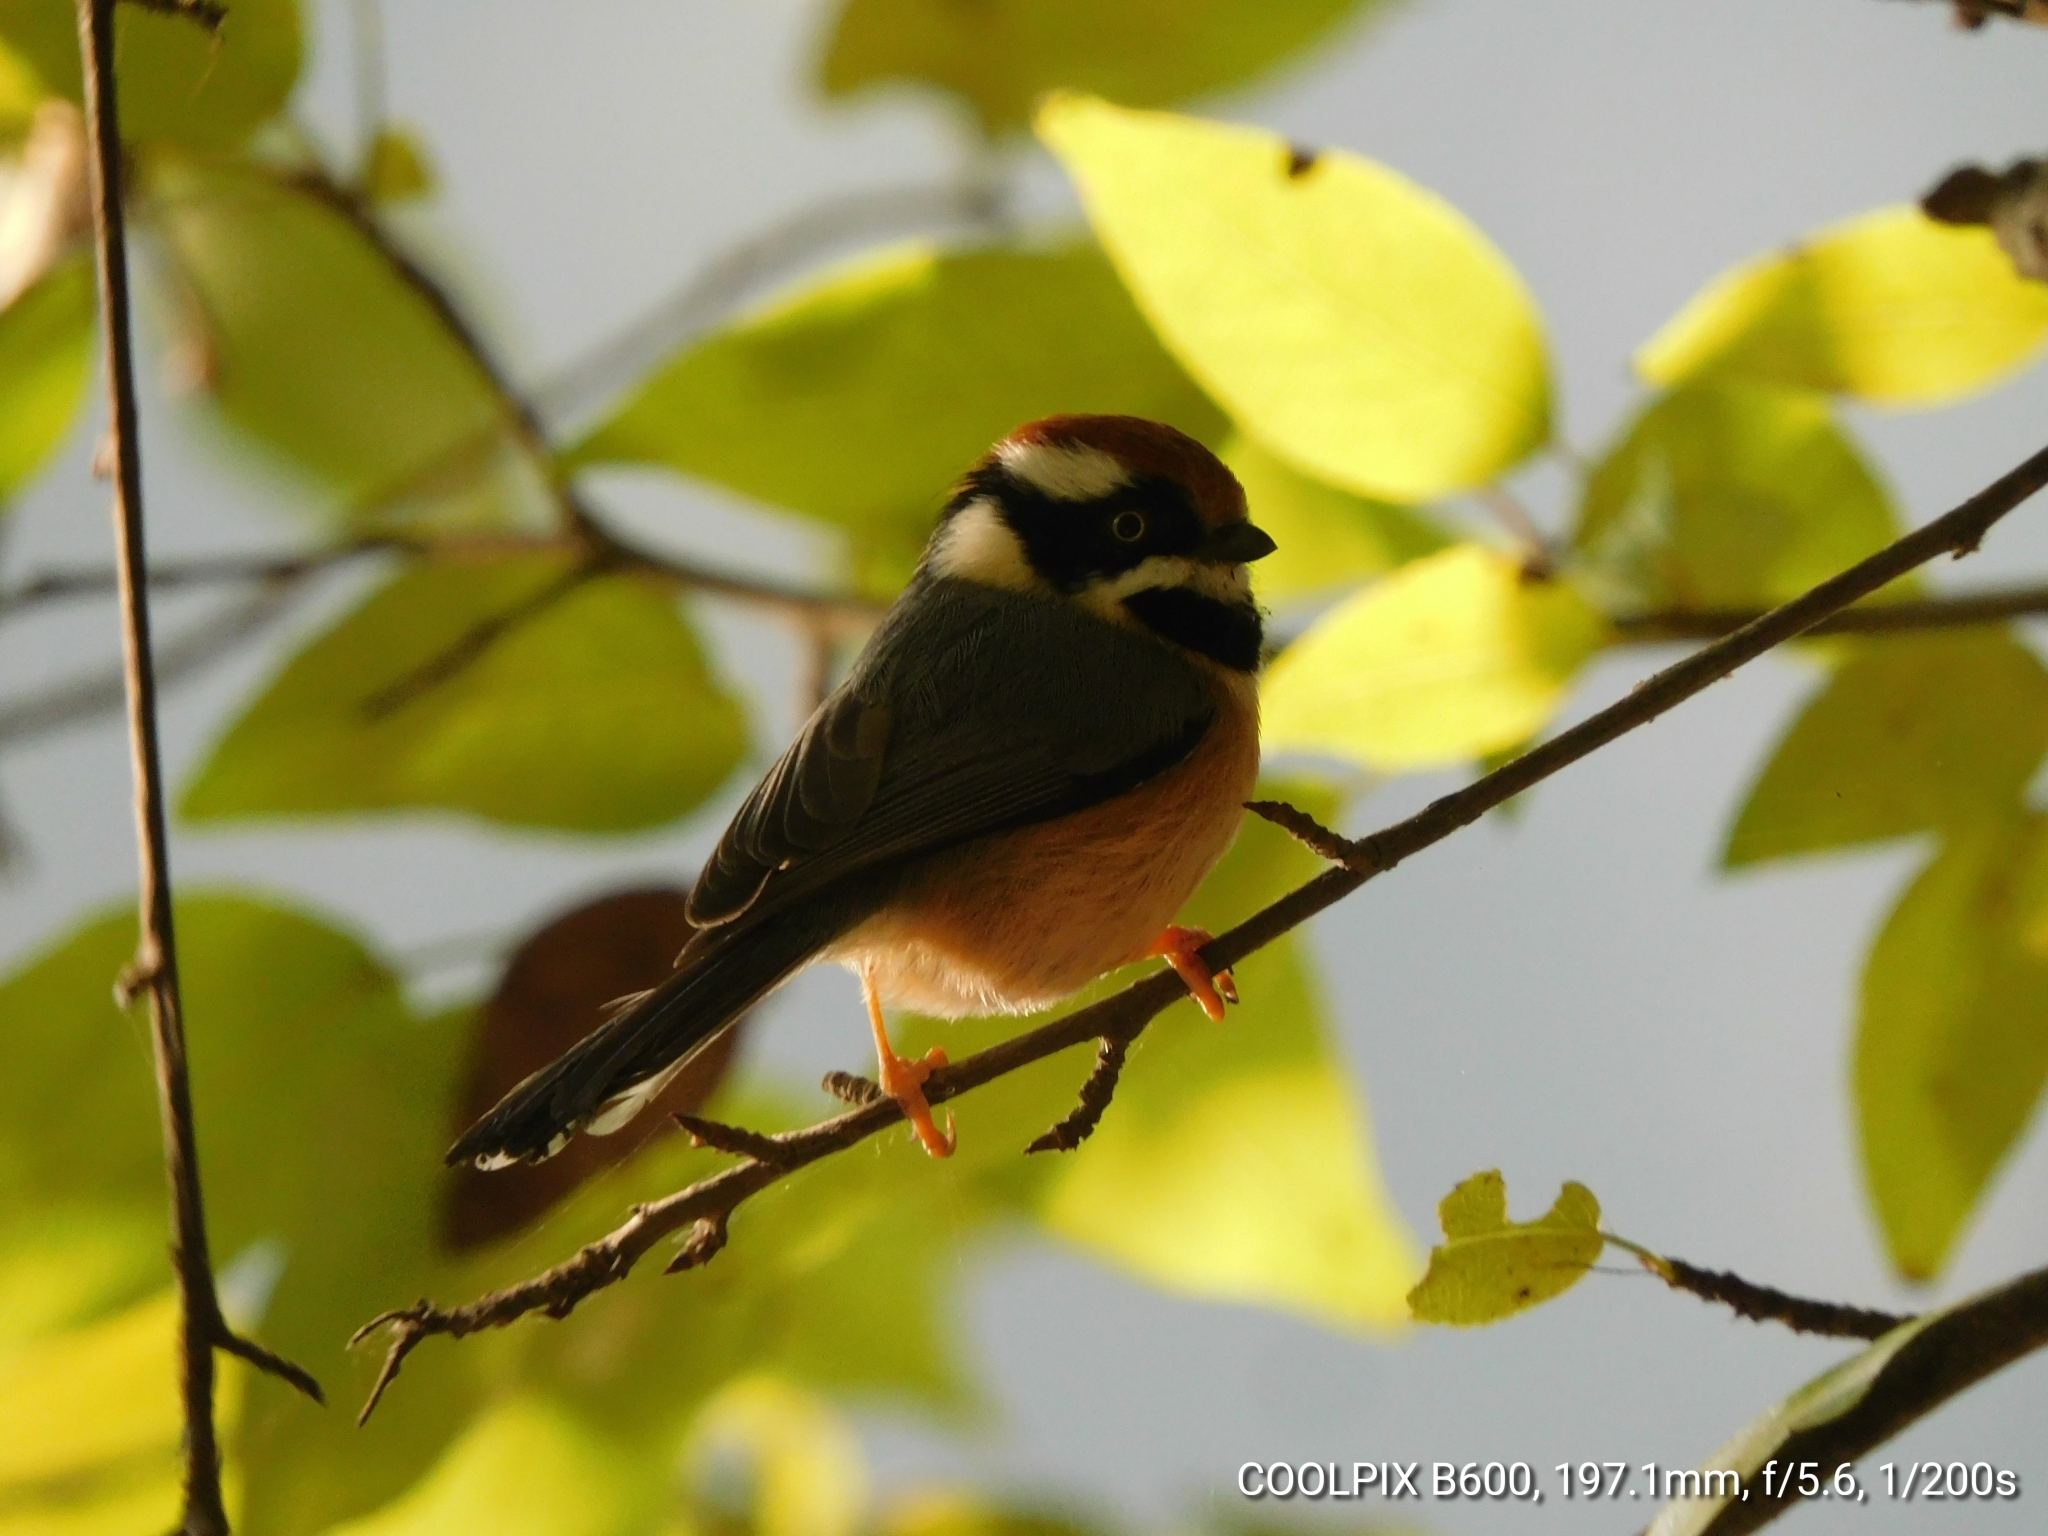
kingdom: Animalia
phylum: Chordata
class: Aves
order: Passeriformes
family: Aegithalidae
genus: Aegithalos
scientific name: Aegithalos concinnus
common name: Black-throated bushtit
